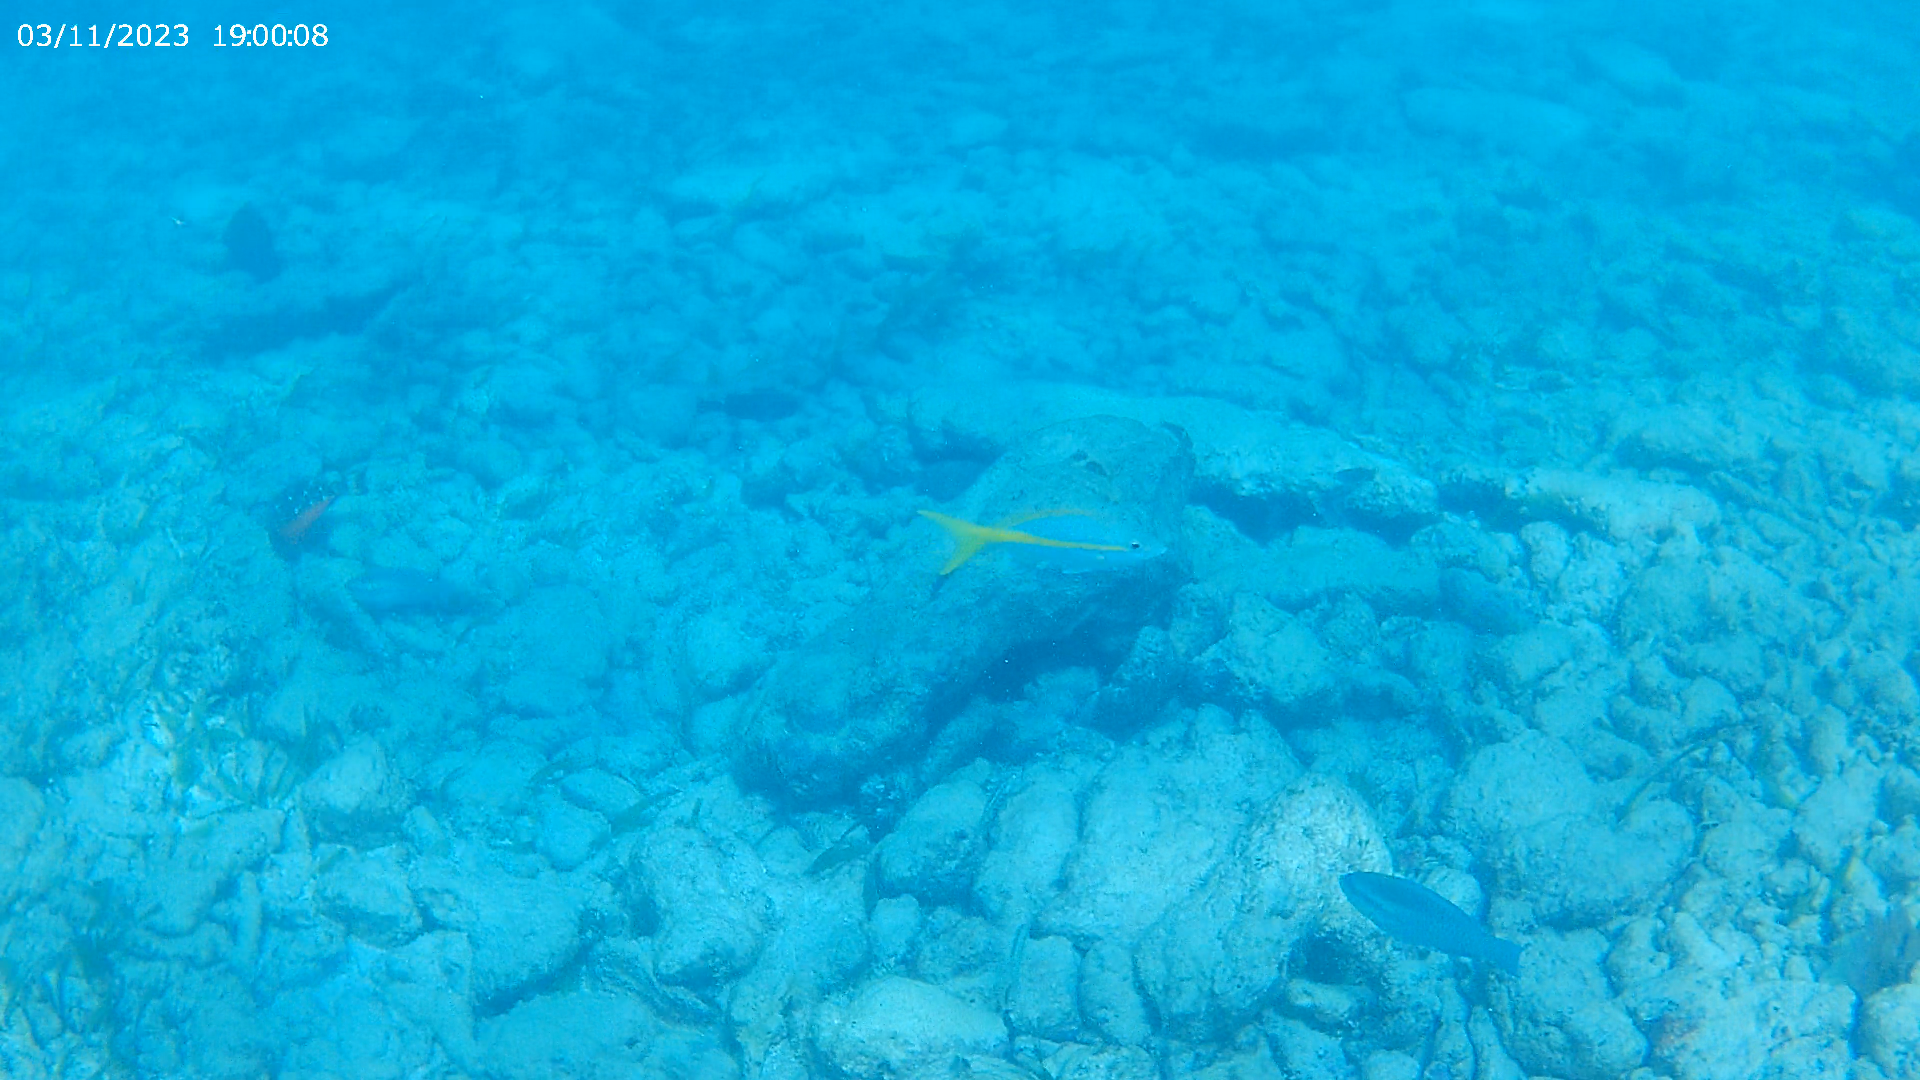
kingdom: Animalia
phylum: Chordata
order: Perciformes
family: Scaridae
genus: Scarus
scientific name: Scarus iseri
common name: Striped parrotfish
